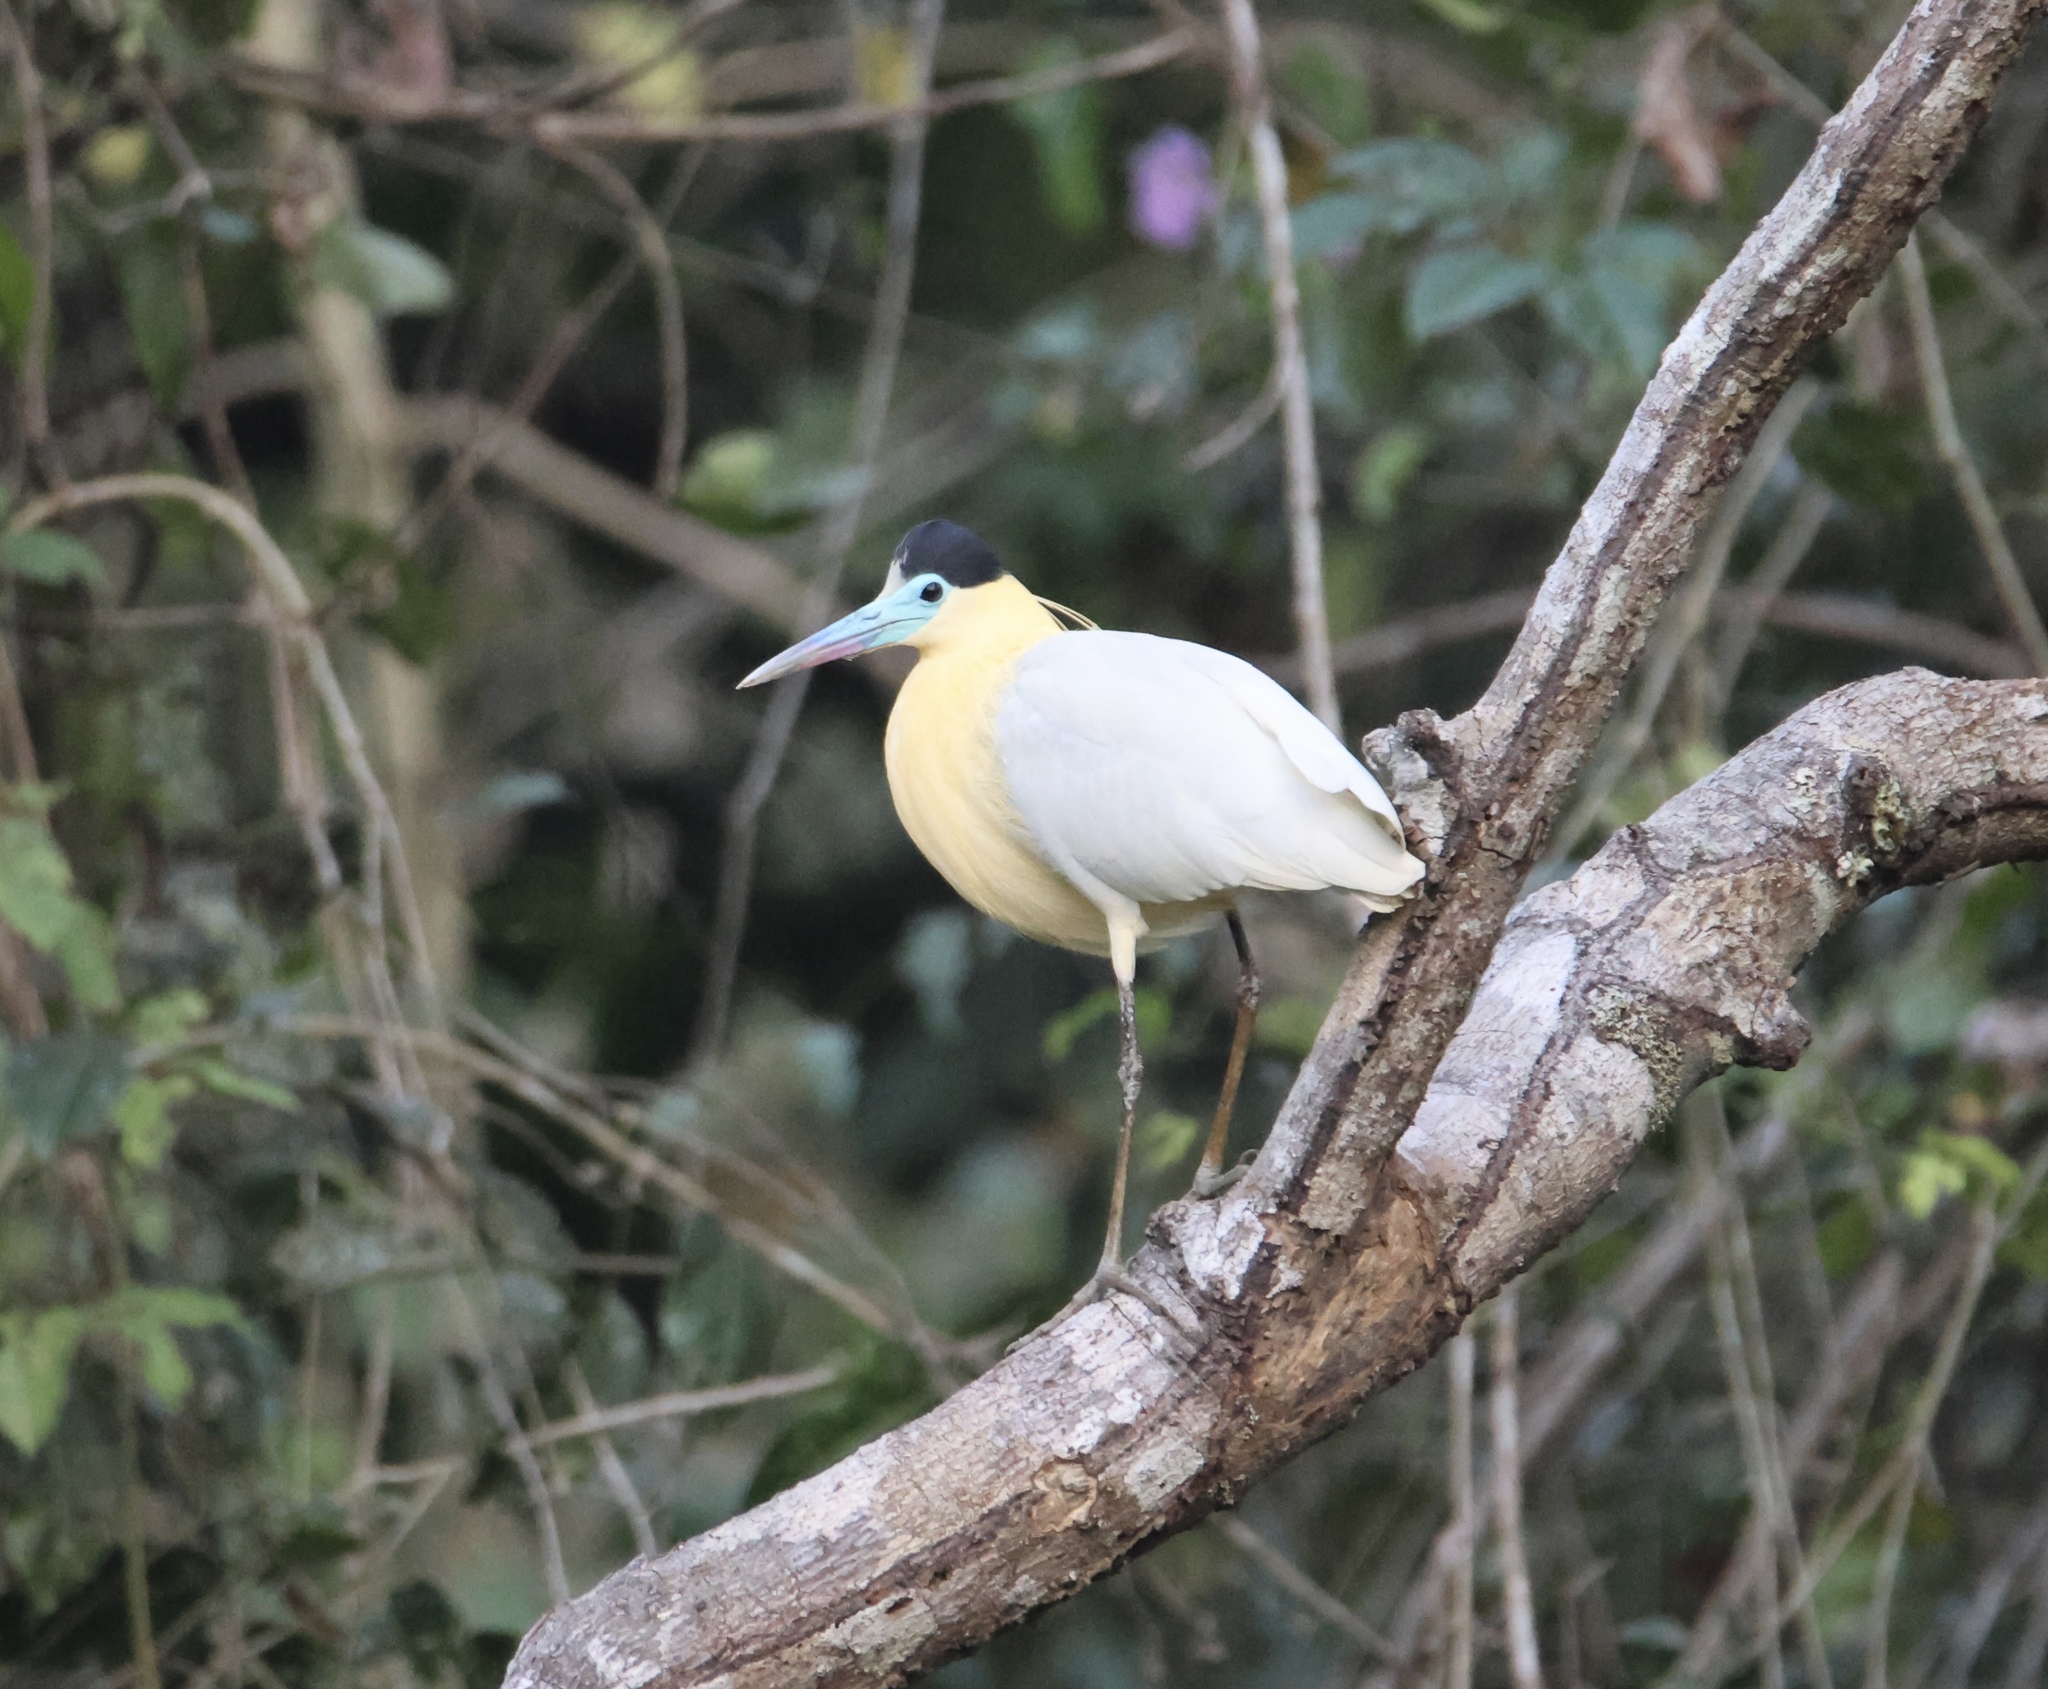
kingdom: Animalia
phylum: Chordata
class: Aves
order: Pelecaniformes
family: Ardeidae
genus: Pilherodius
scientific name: Pilherodius pileatus
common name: Capped heron
